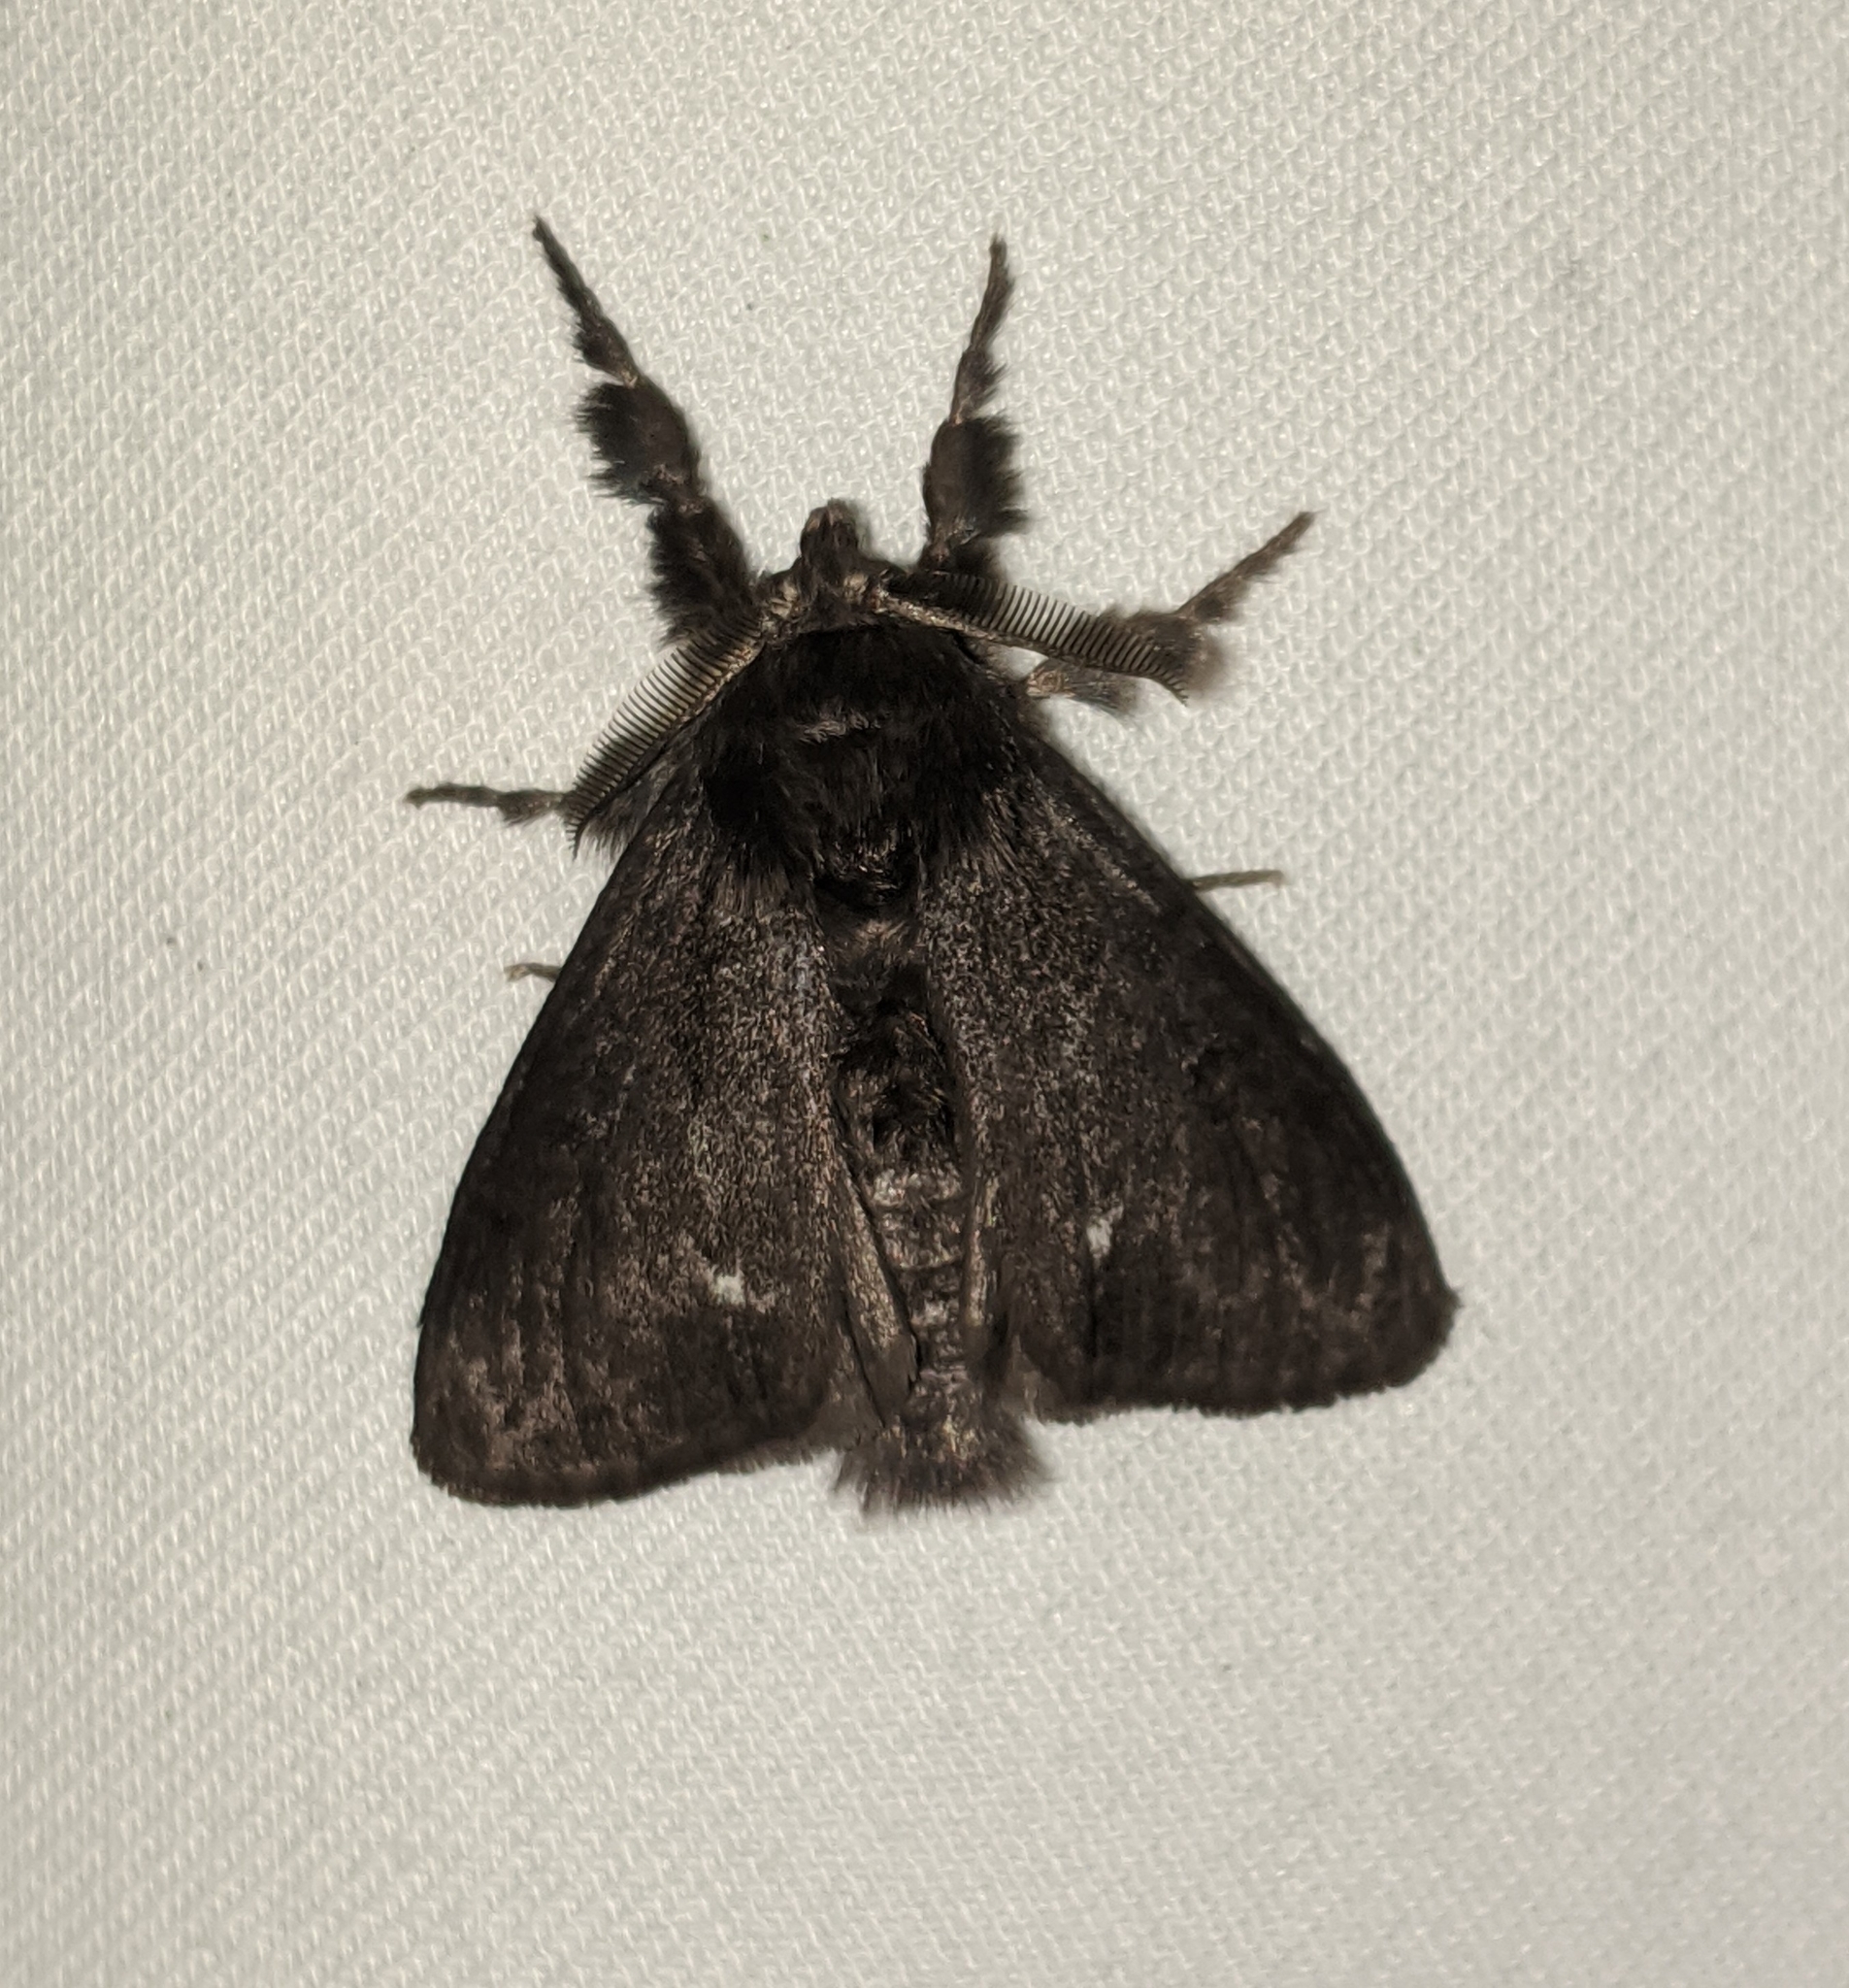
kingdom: Animalia
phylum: Arthropoda
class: Insecta
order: Lepidoptera
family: Erebidae
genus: Dasychira
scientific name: Dasychira grisefacta
